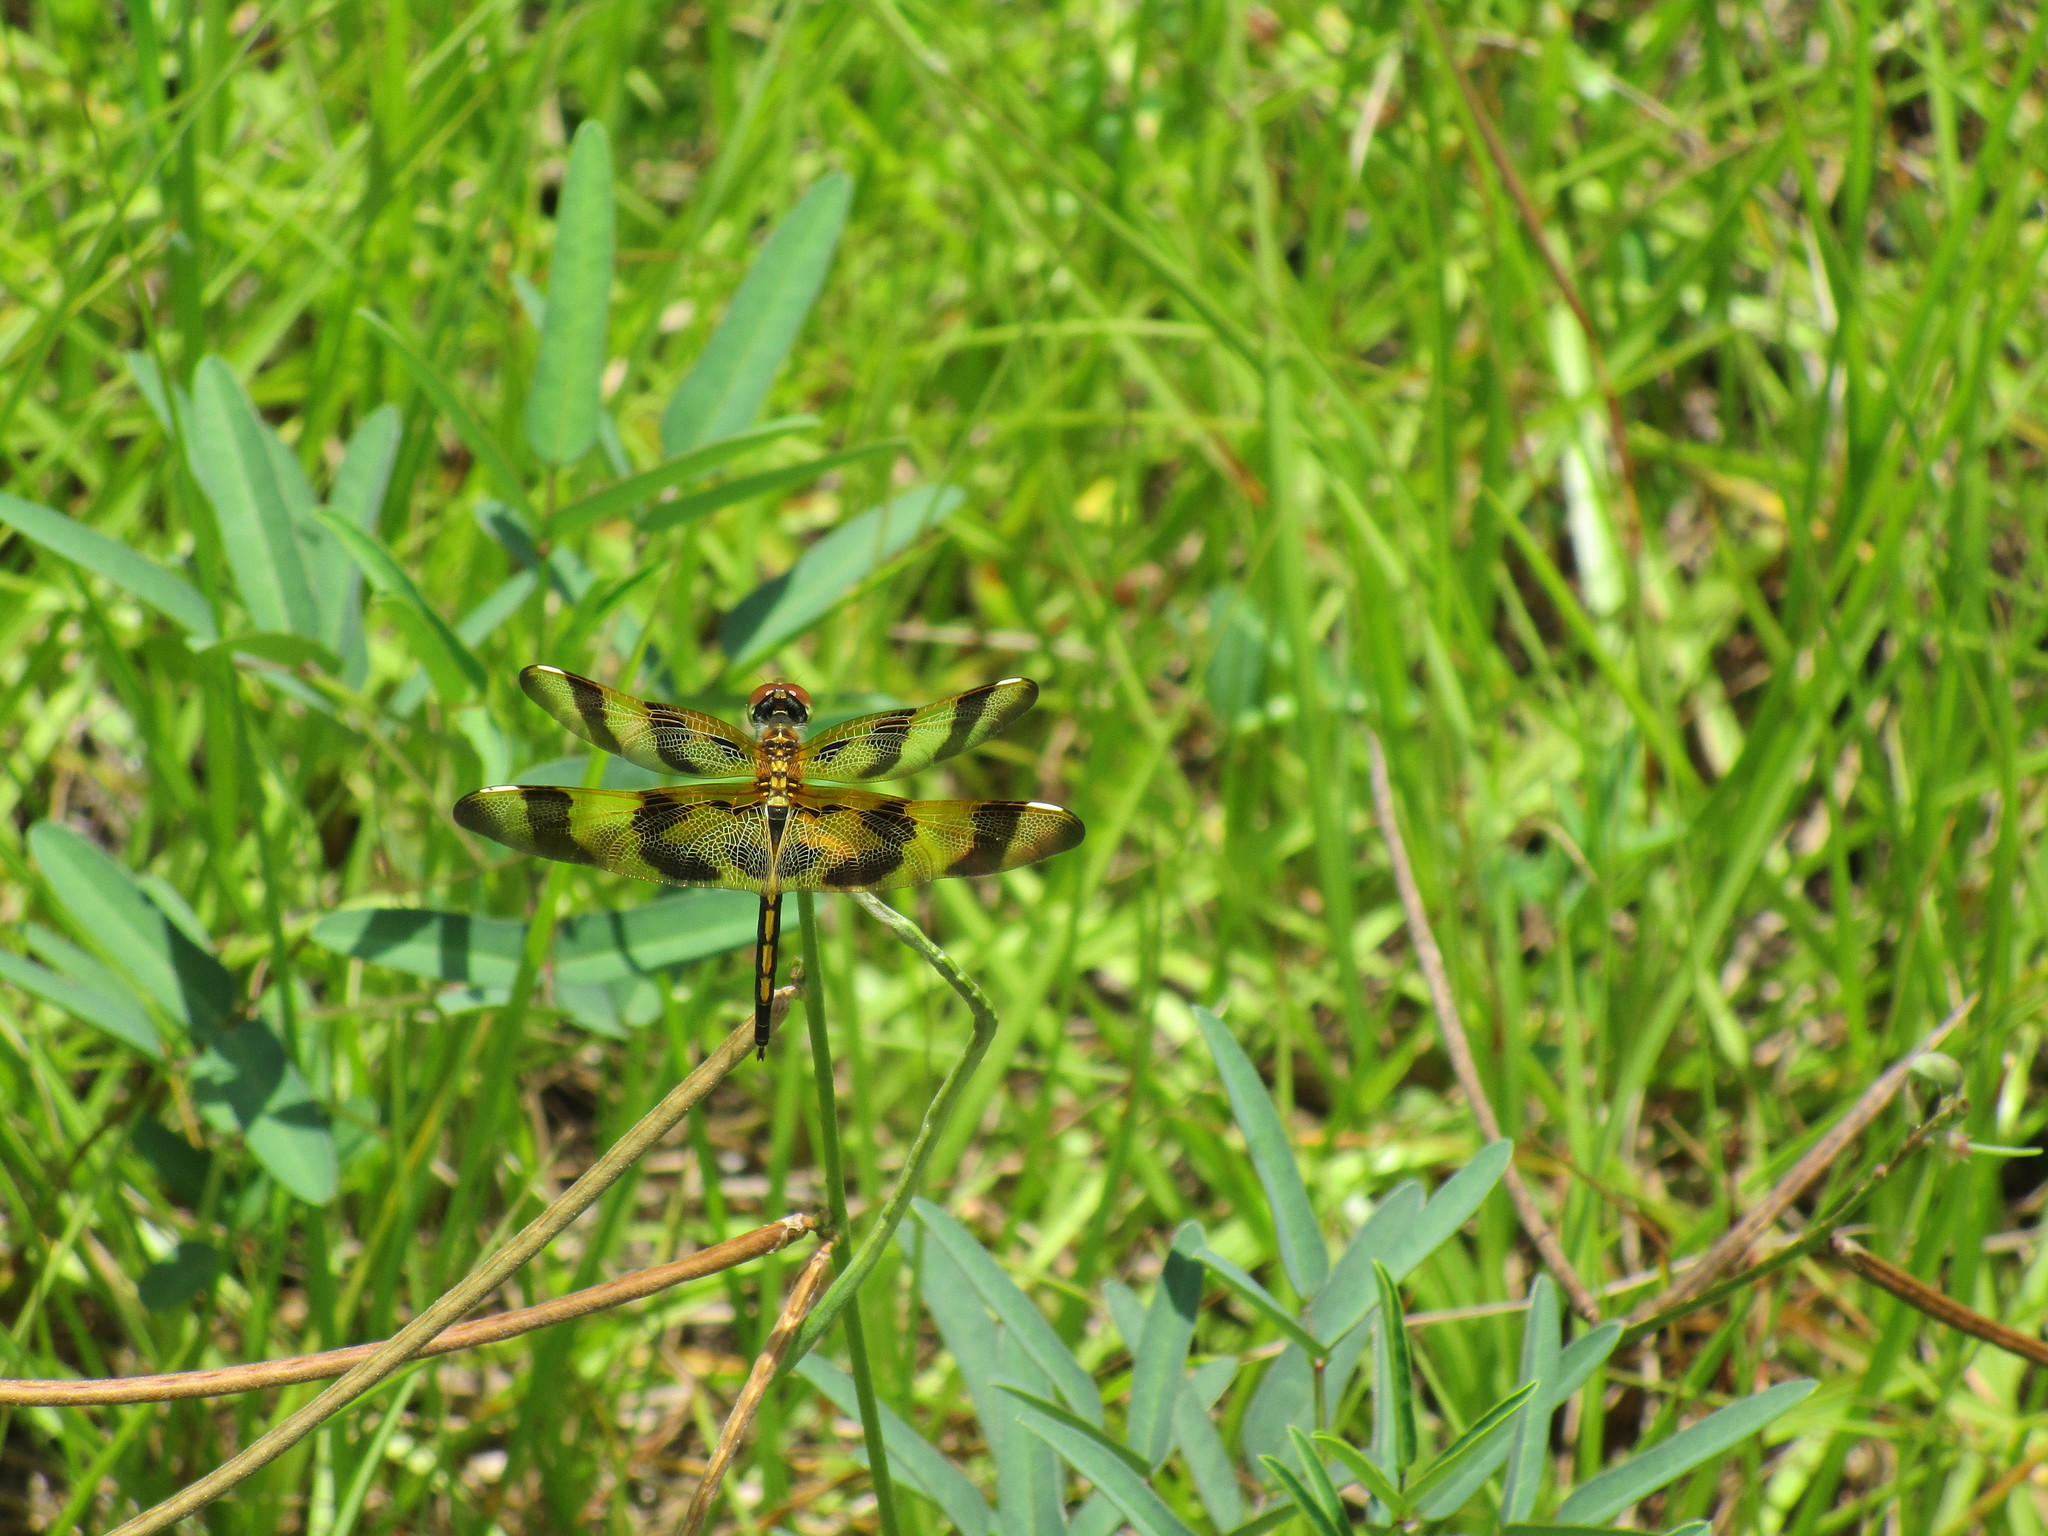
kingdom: Animalia
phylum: Arthropoda
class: Insecta
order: Odonata
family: Libellulidae
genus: Celithemis
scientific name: Celithemis eponina
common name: Halloween pennant
